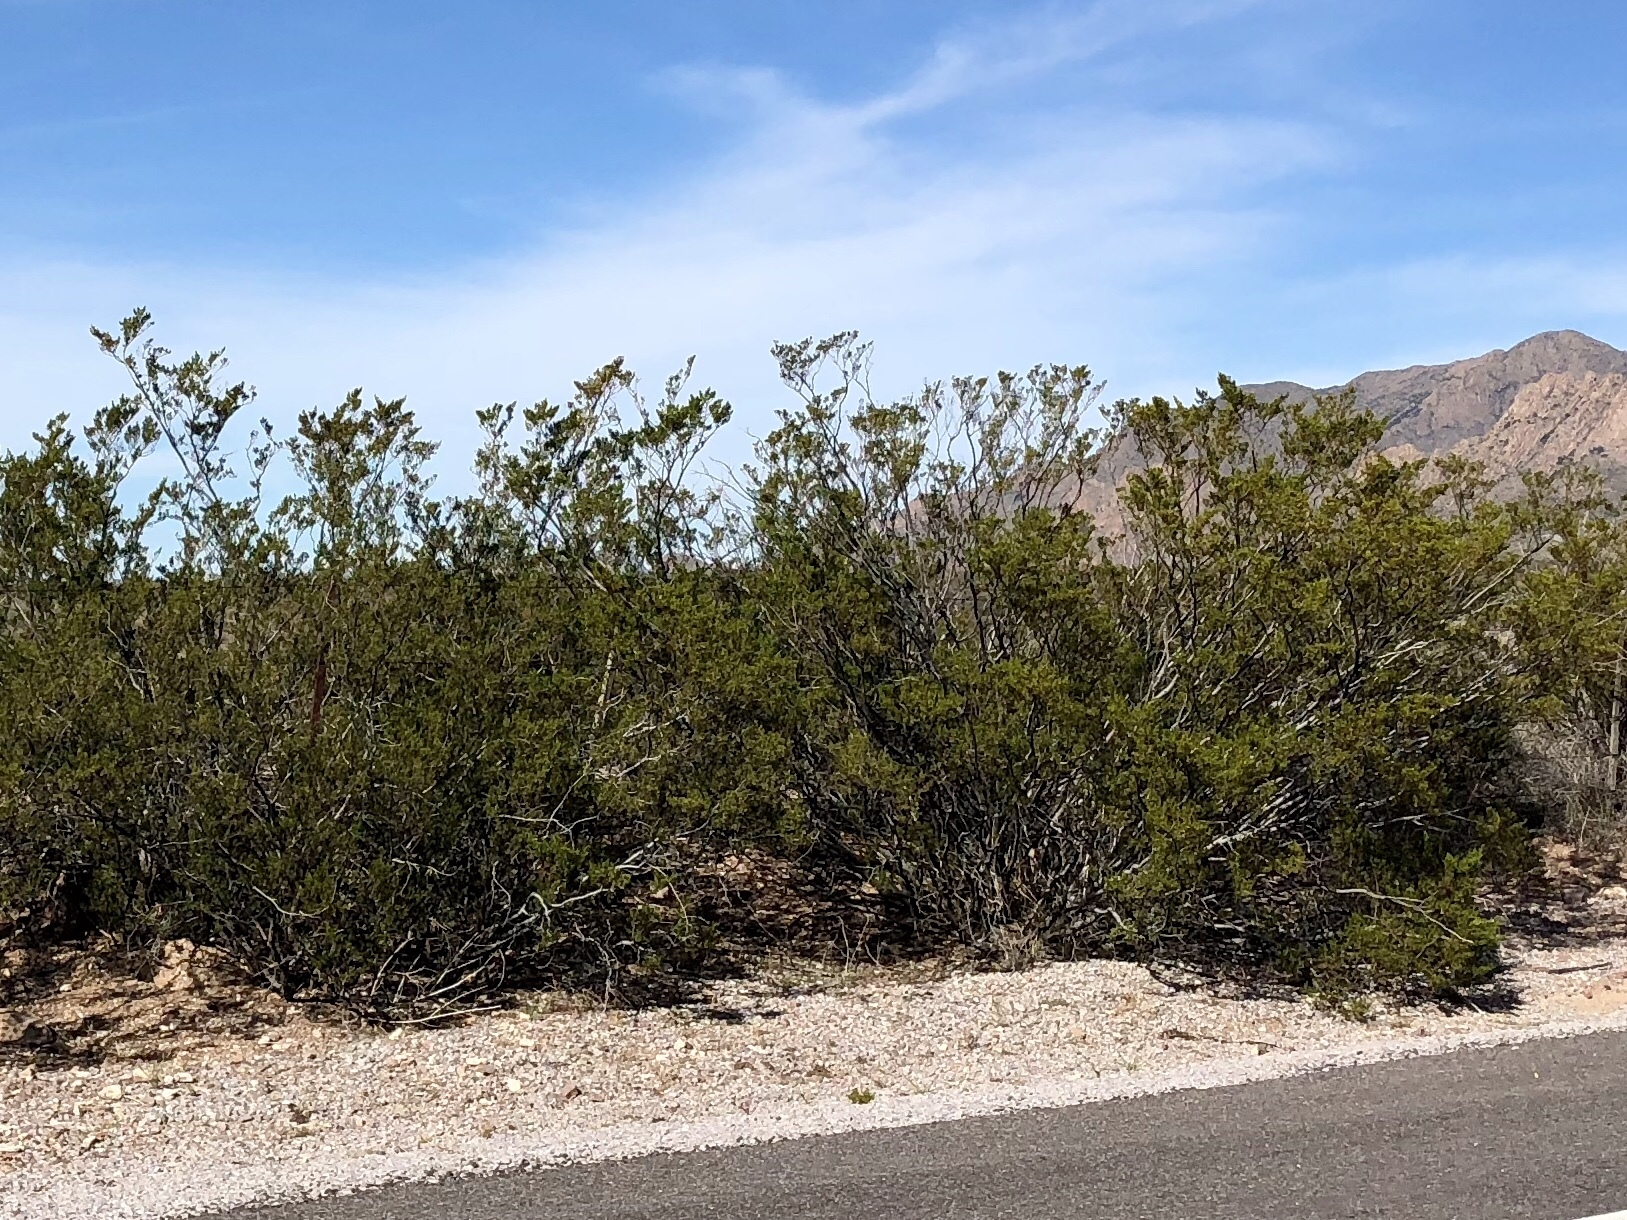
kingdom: Plantae
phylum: Tracheophyta
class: Magnoliopsida
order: Zygophyllales
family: Zygophyllaceae
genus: Larrea
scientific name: Larrea tridentata
